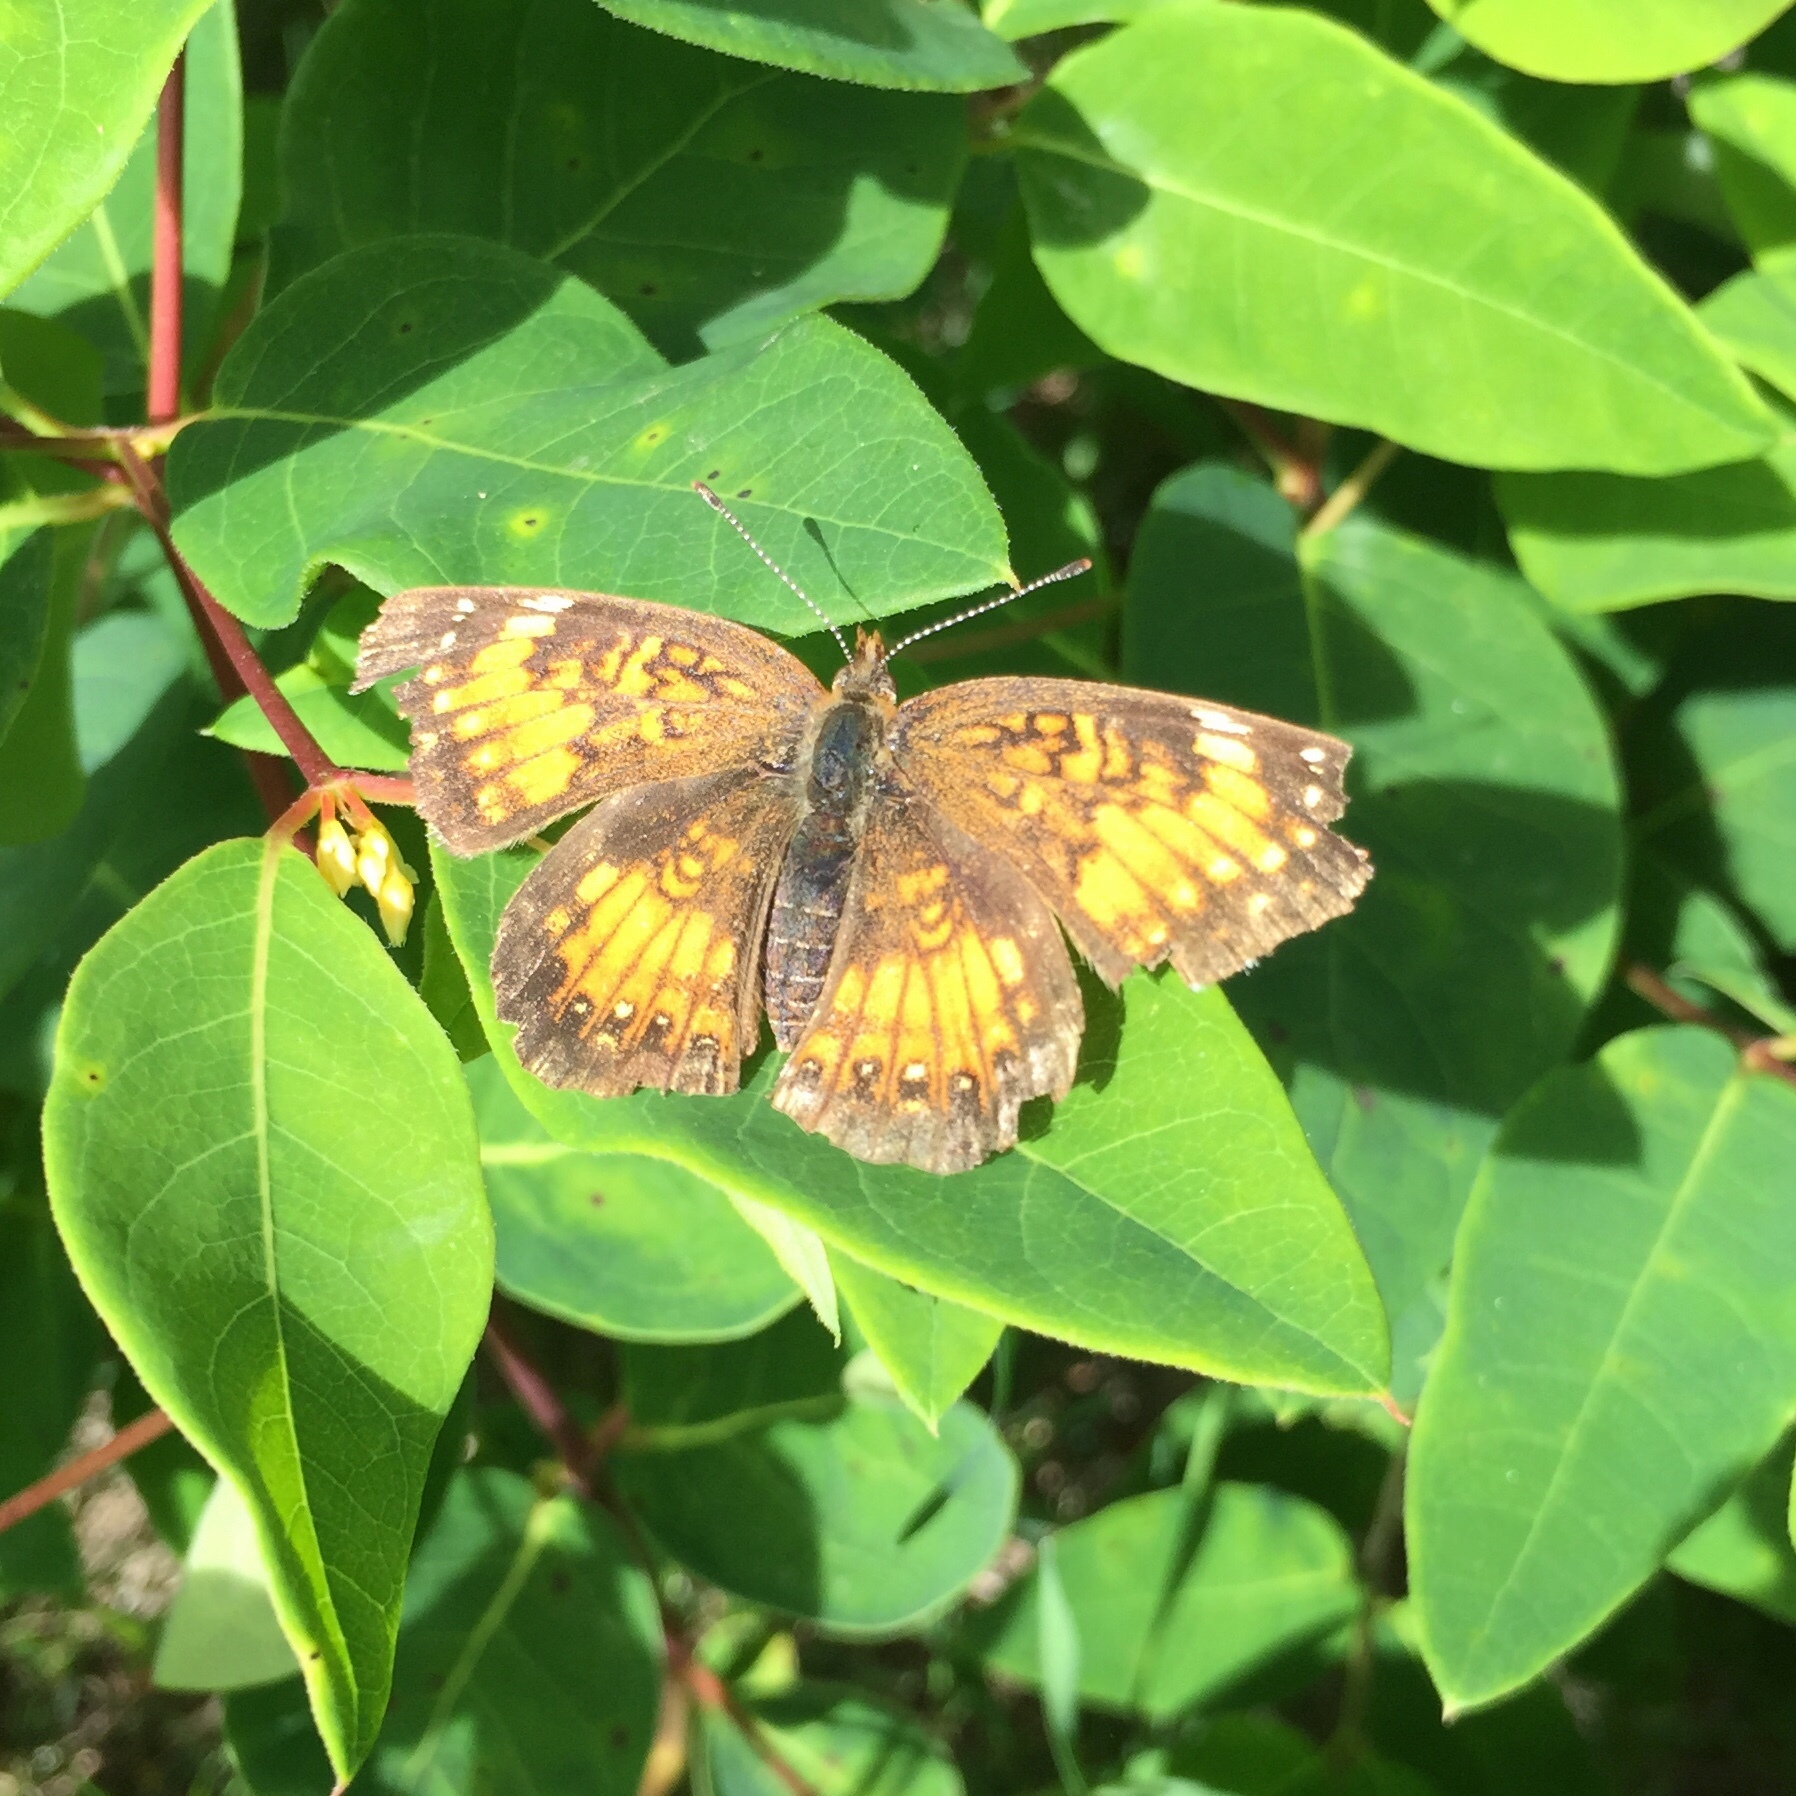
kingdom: Animalia
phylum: Arthropoda
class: Insecta
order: Lepidoptera
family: Nymphalidae
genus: Chlosyne
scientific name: Chlosyne nycteis
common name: Silvery checkerspot
